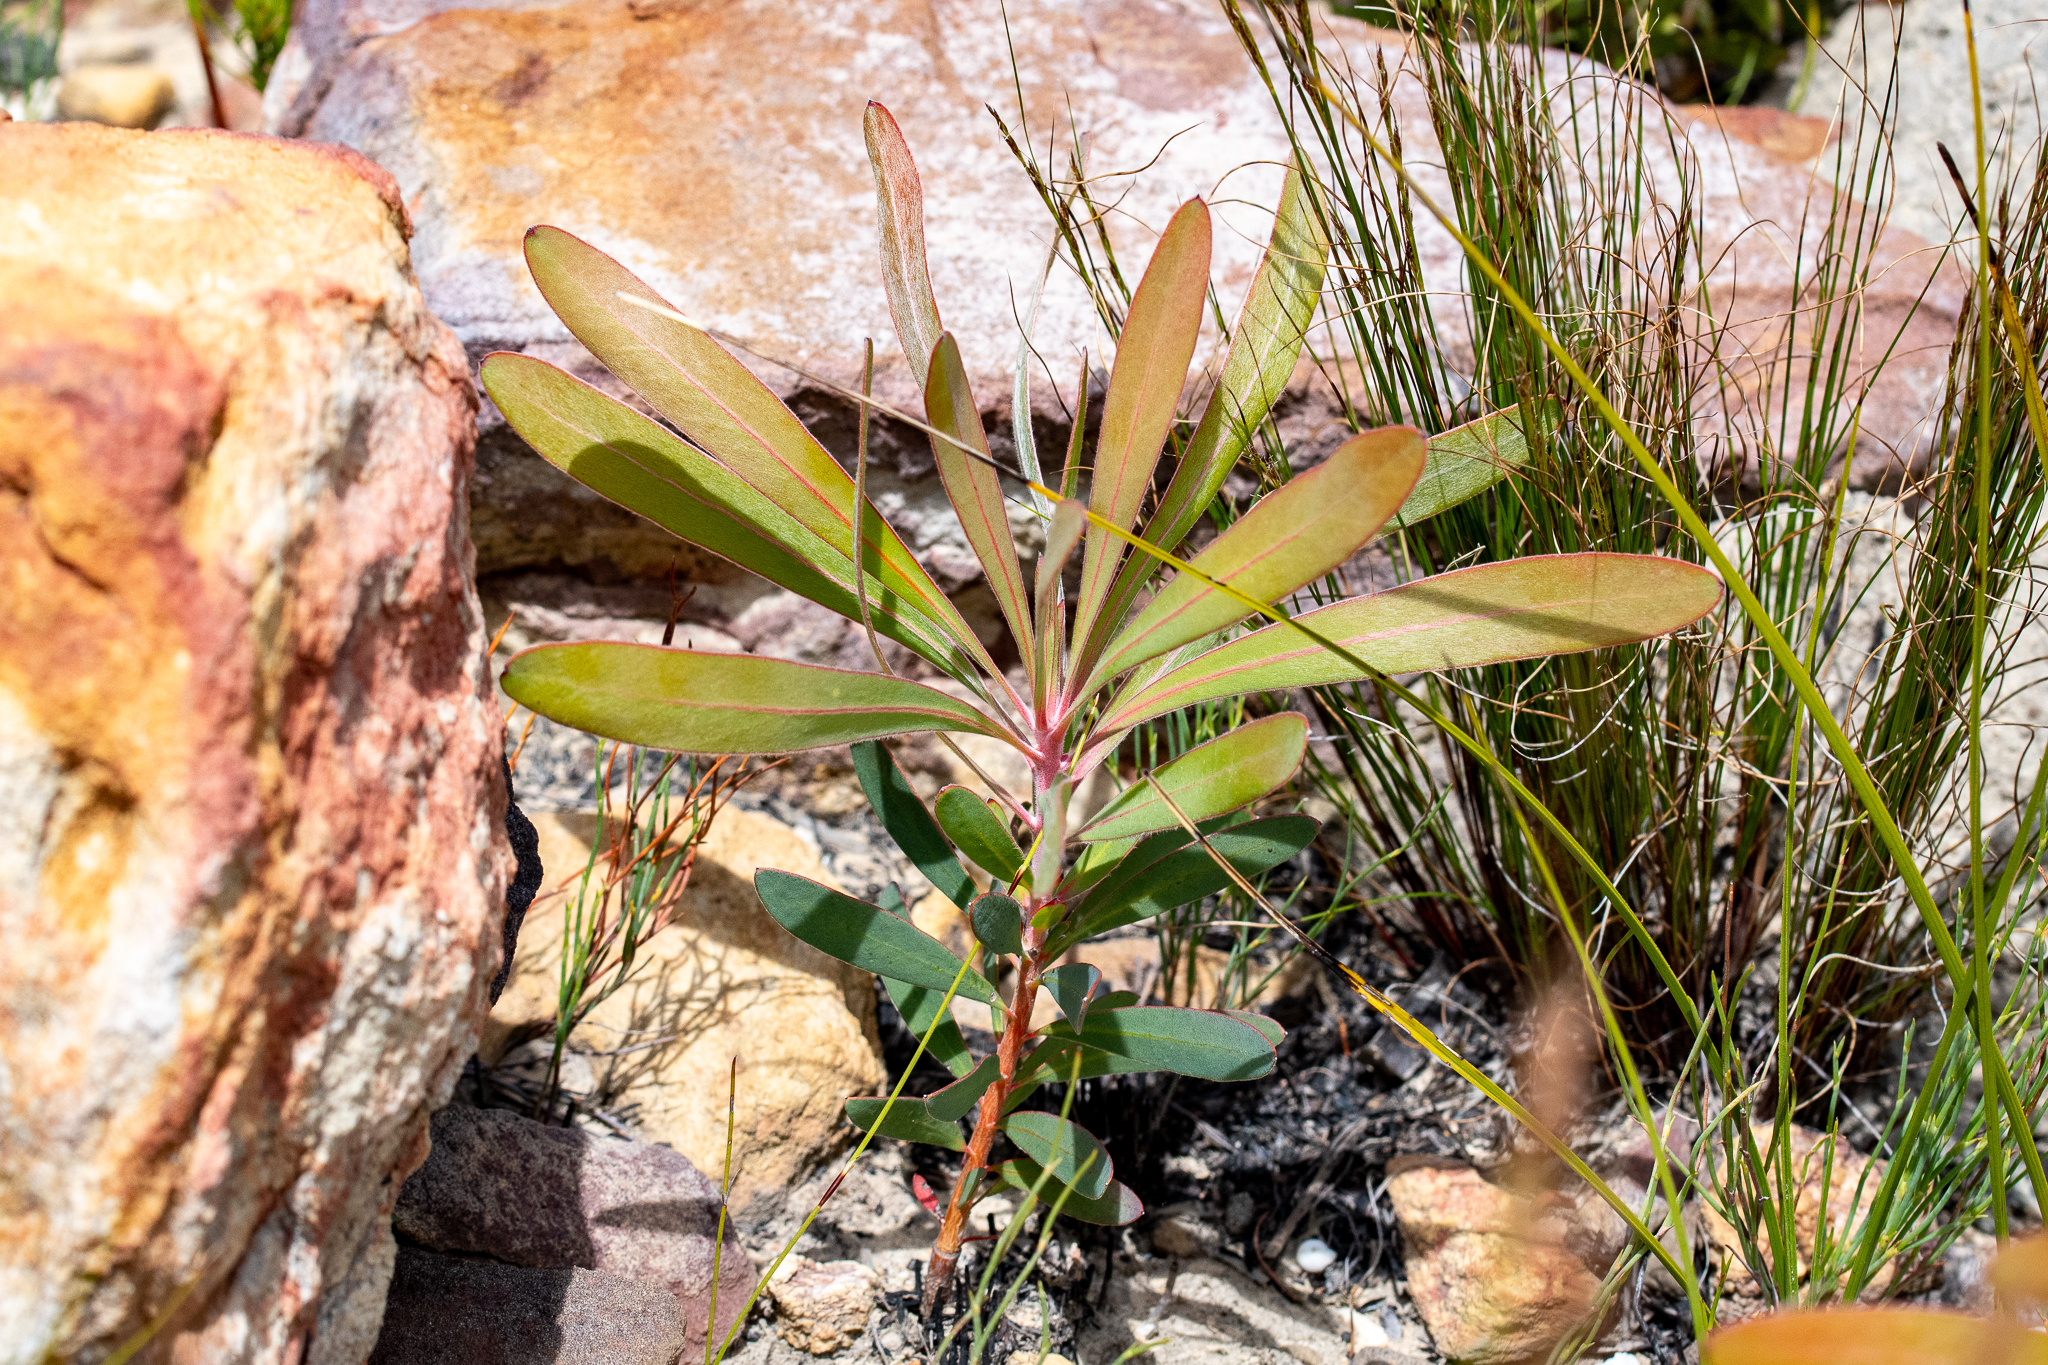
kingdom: Plantae
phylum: Tracheophyta
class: Magnoliopsida
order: Proteales
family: Proteaceae
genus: Protea
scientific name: Protea longifolia
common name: Long-leaf sugarbush
